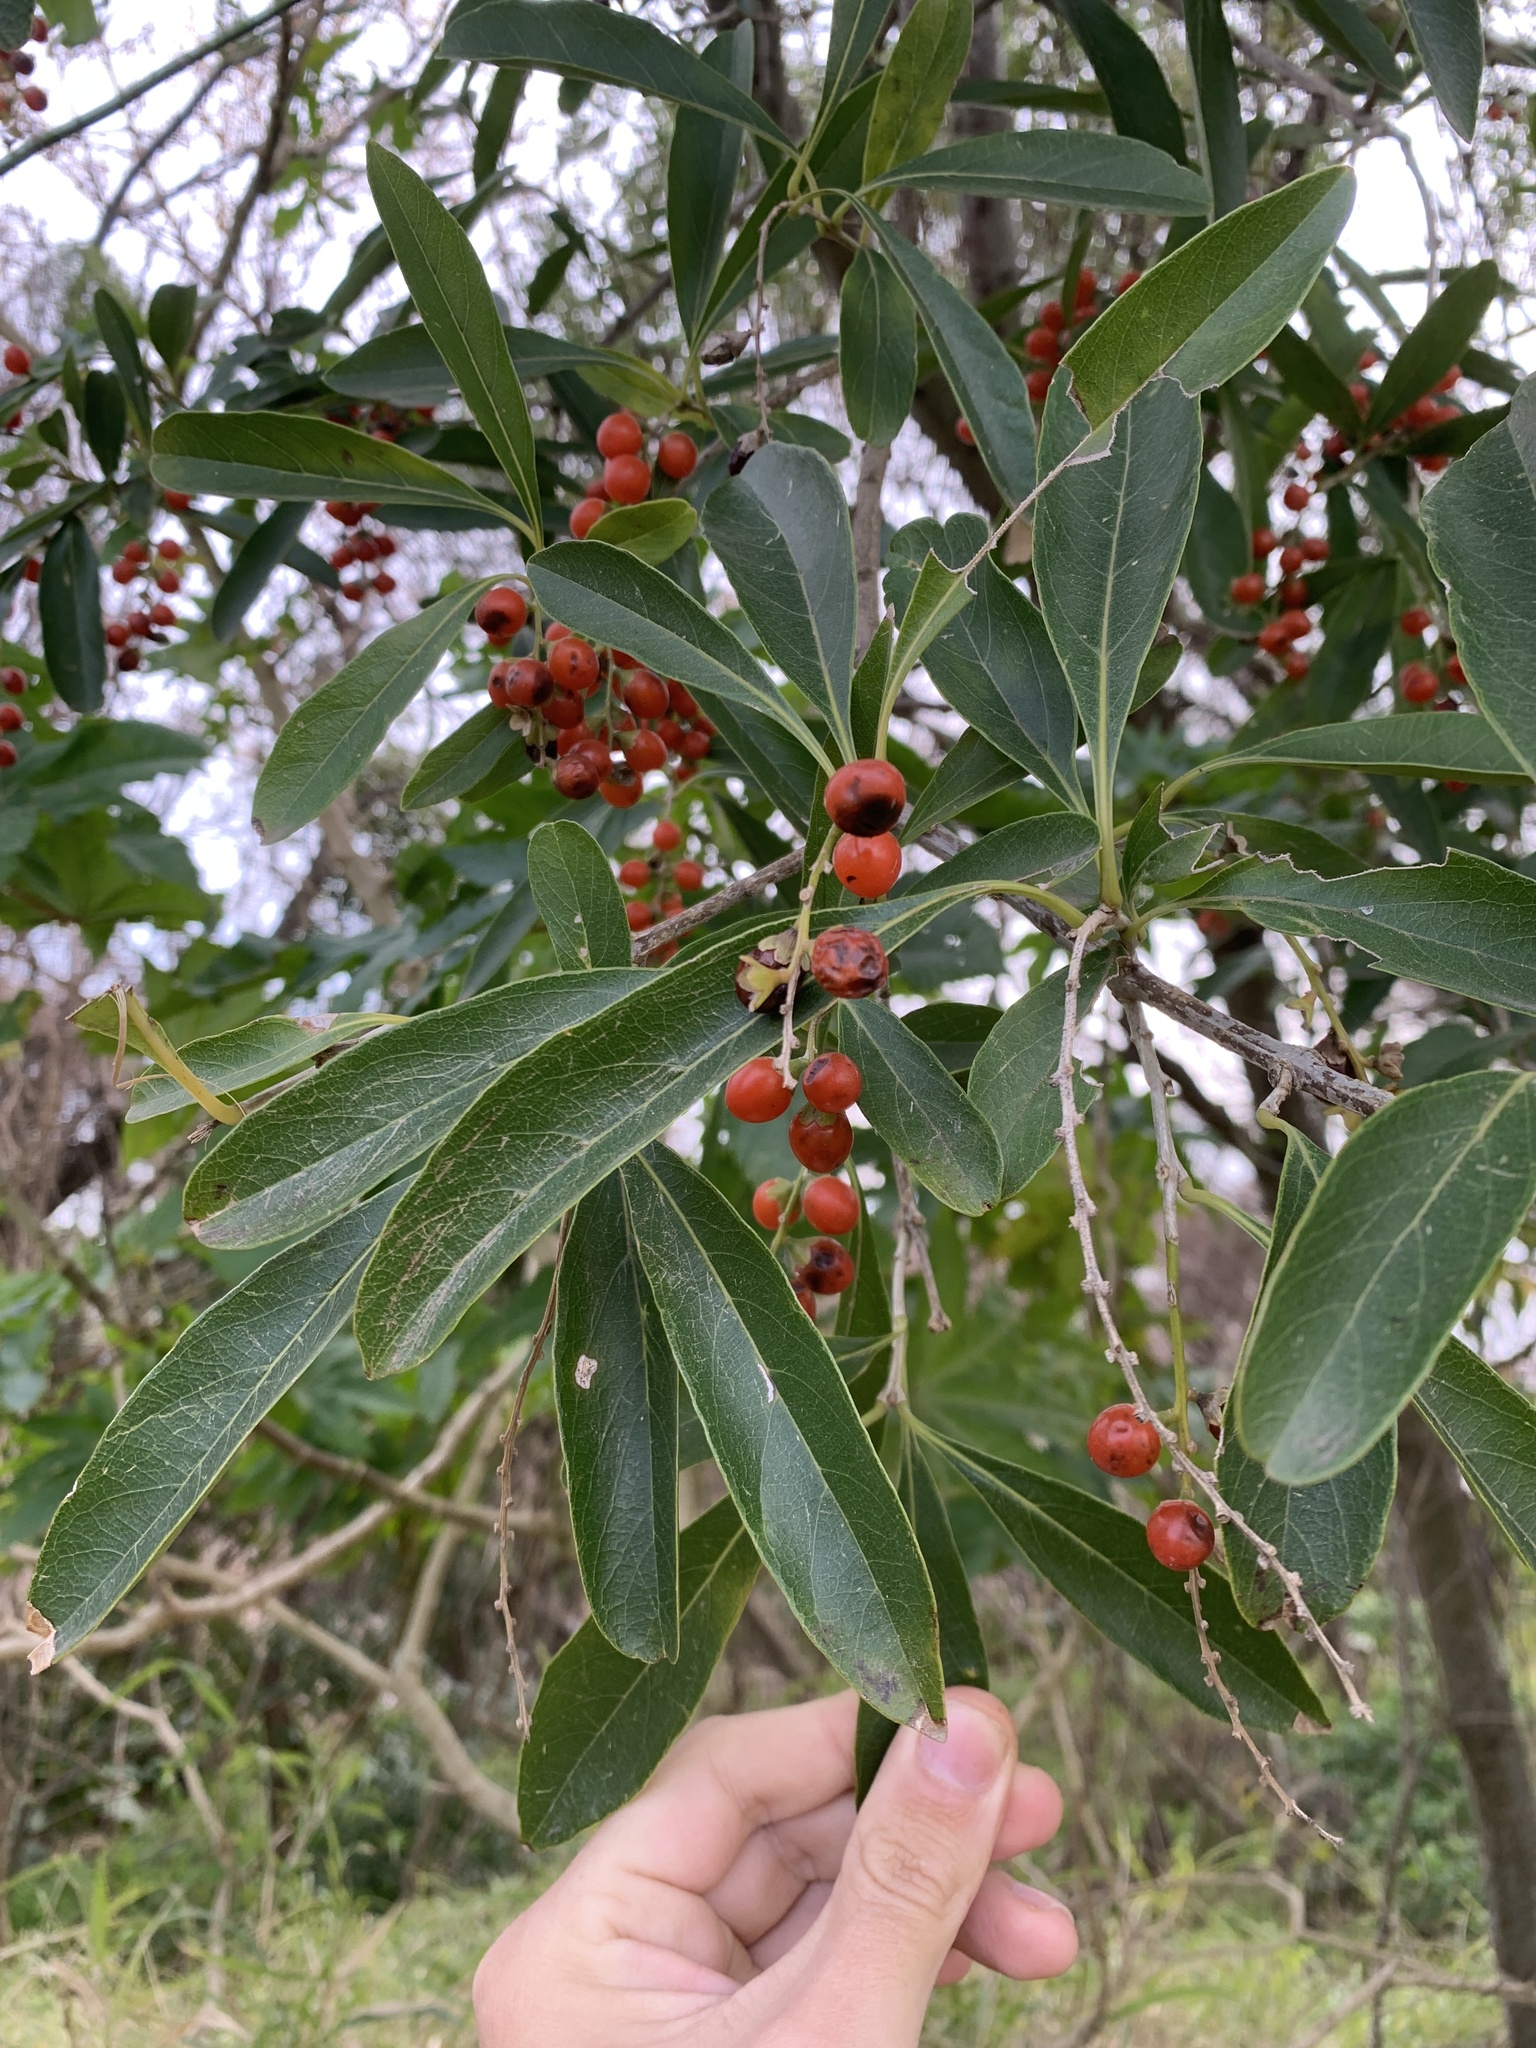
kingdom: Plantae
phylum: Tracheophyta
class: Magnoliopsida
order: Lamiales
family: Verbenaceae
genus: Citharexylum
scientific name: Citharexylum montevidense
